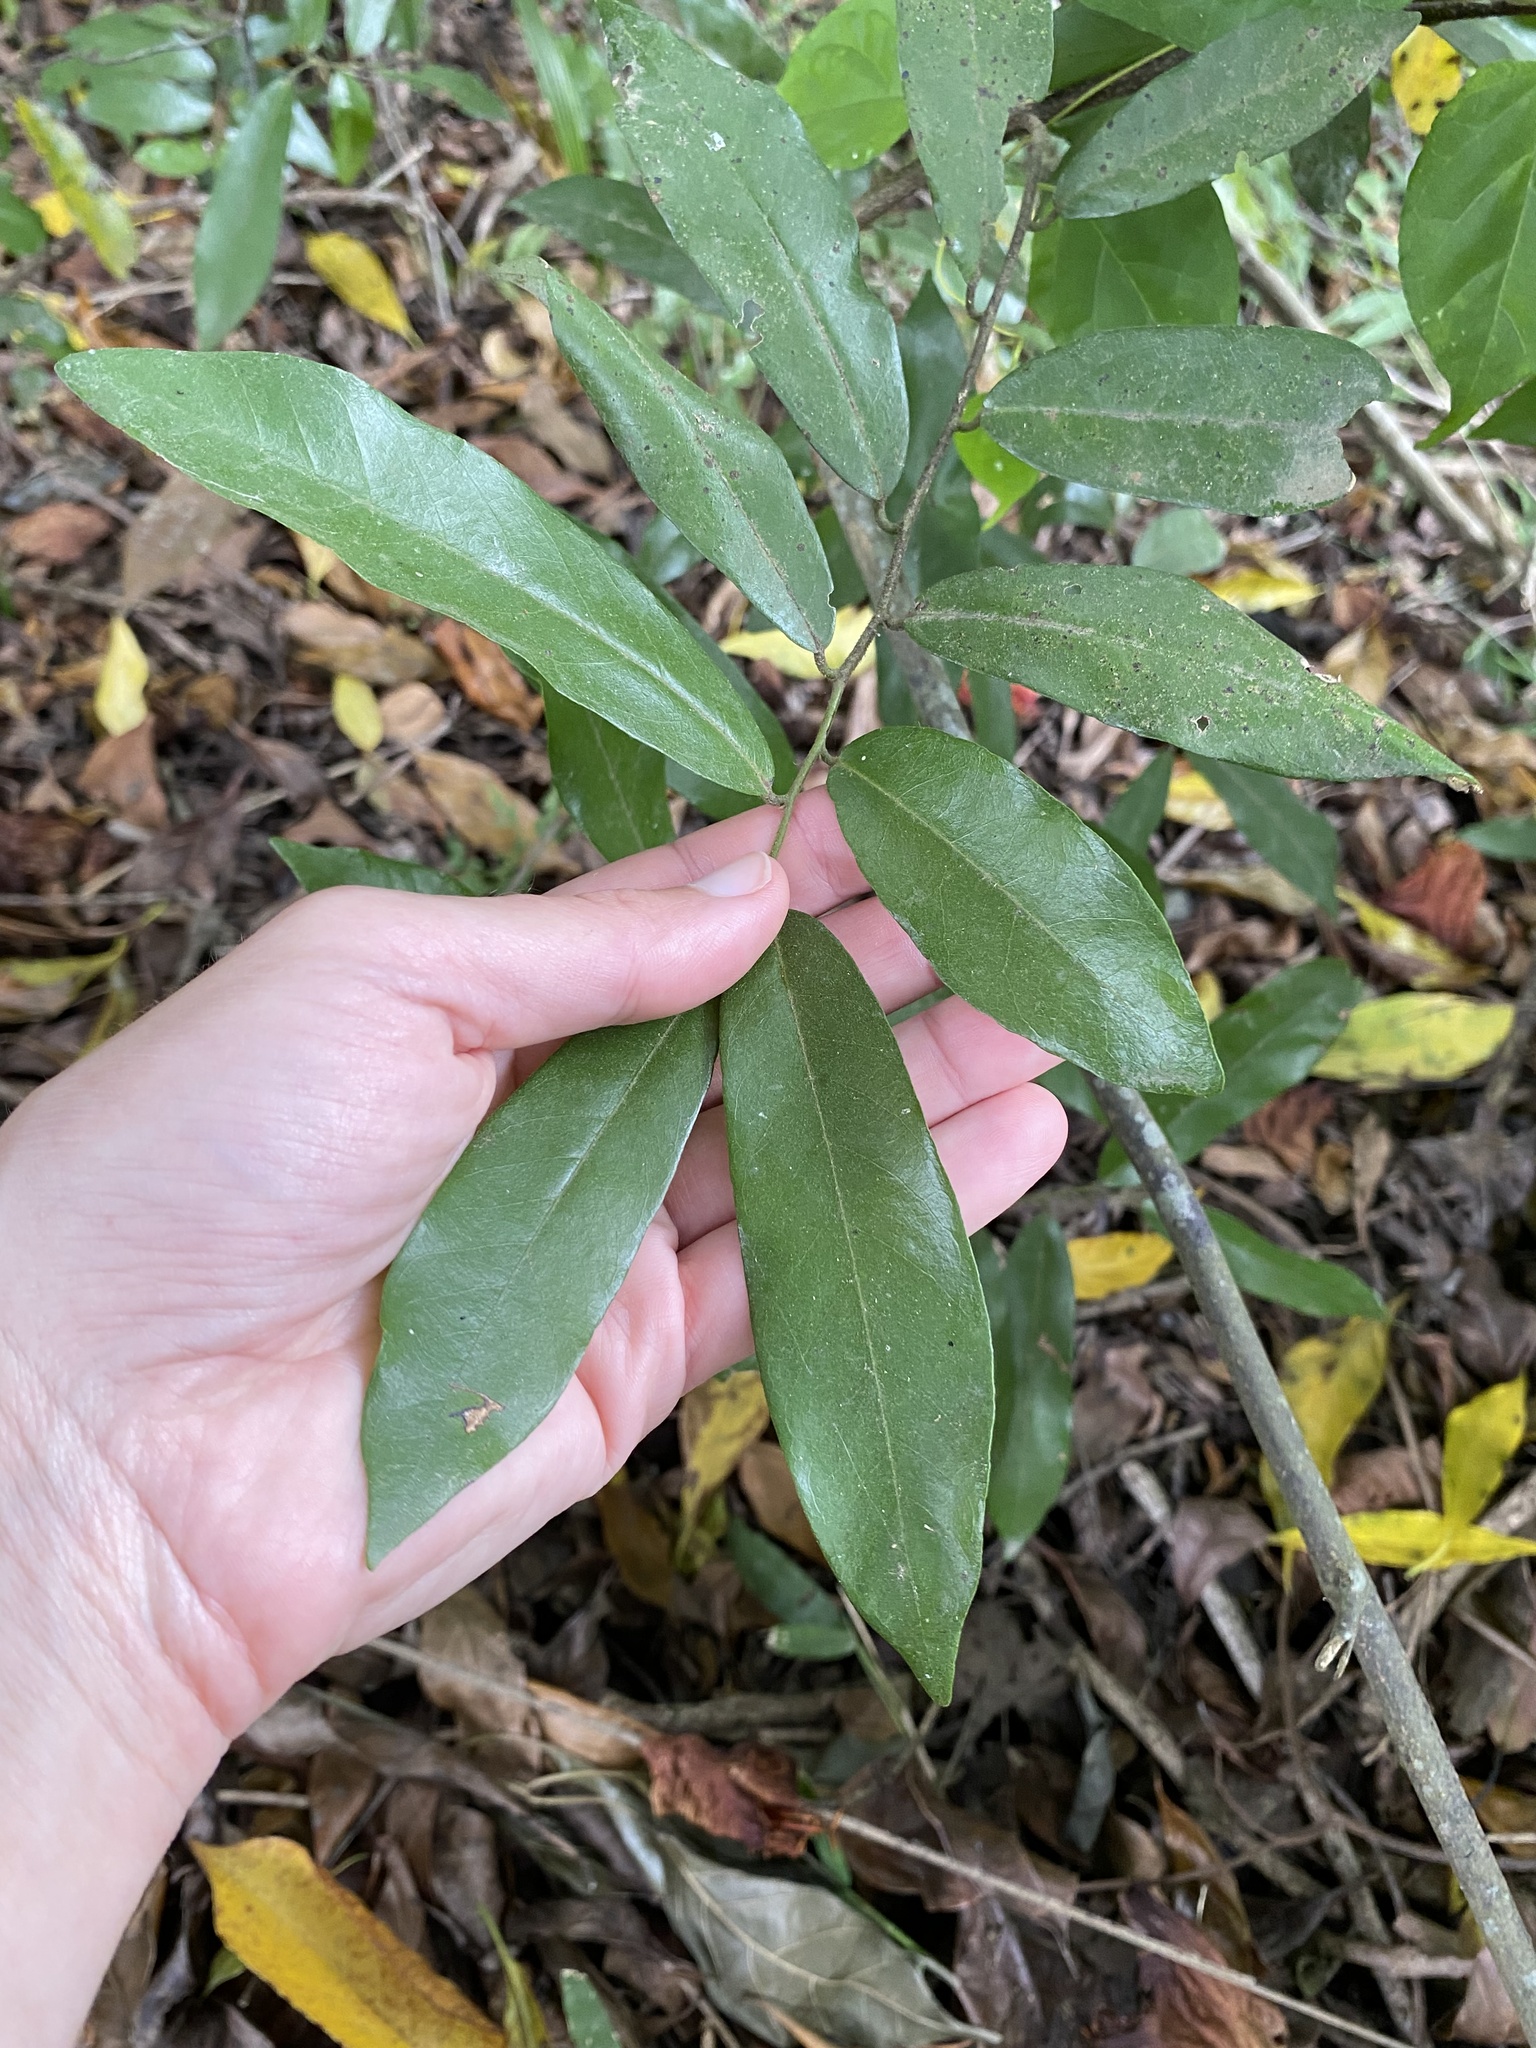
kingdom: Plantae
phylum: Tracheophyta
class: Magnoliopsida
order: Magnoliales
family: Annonaceae
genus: Monanthotaxis
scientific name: Monanthotaxis caffra
